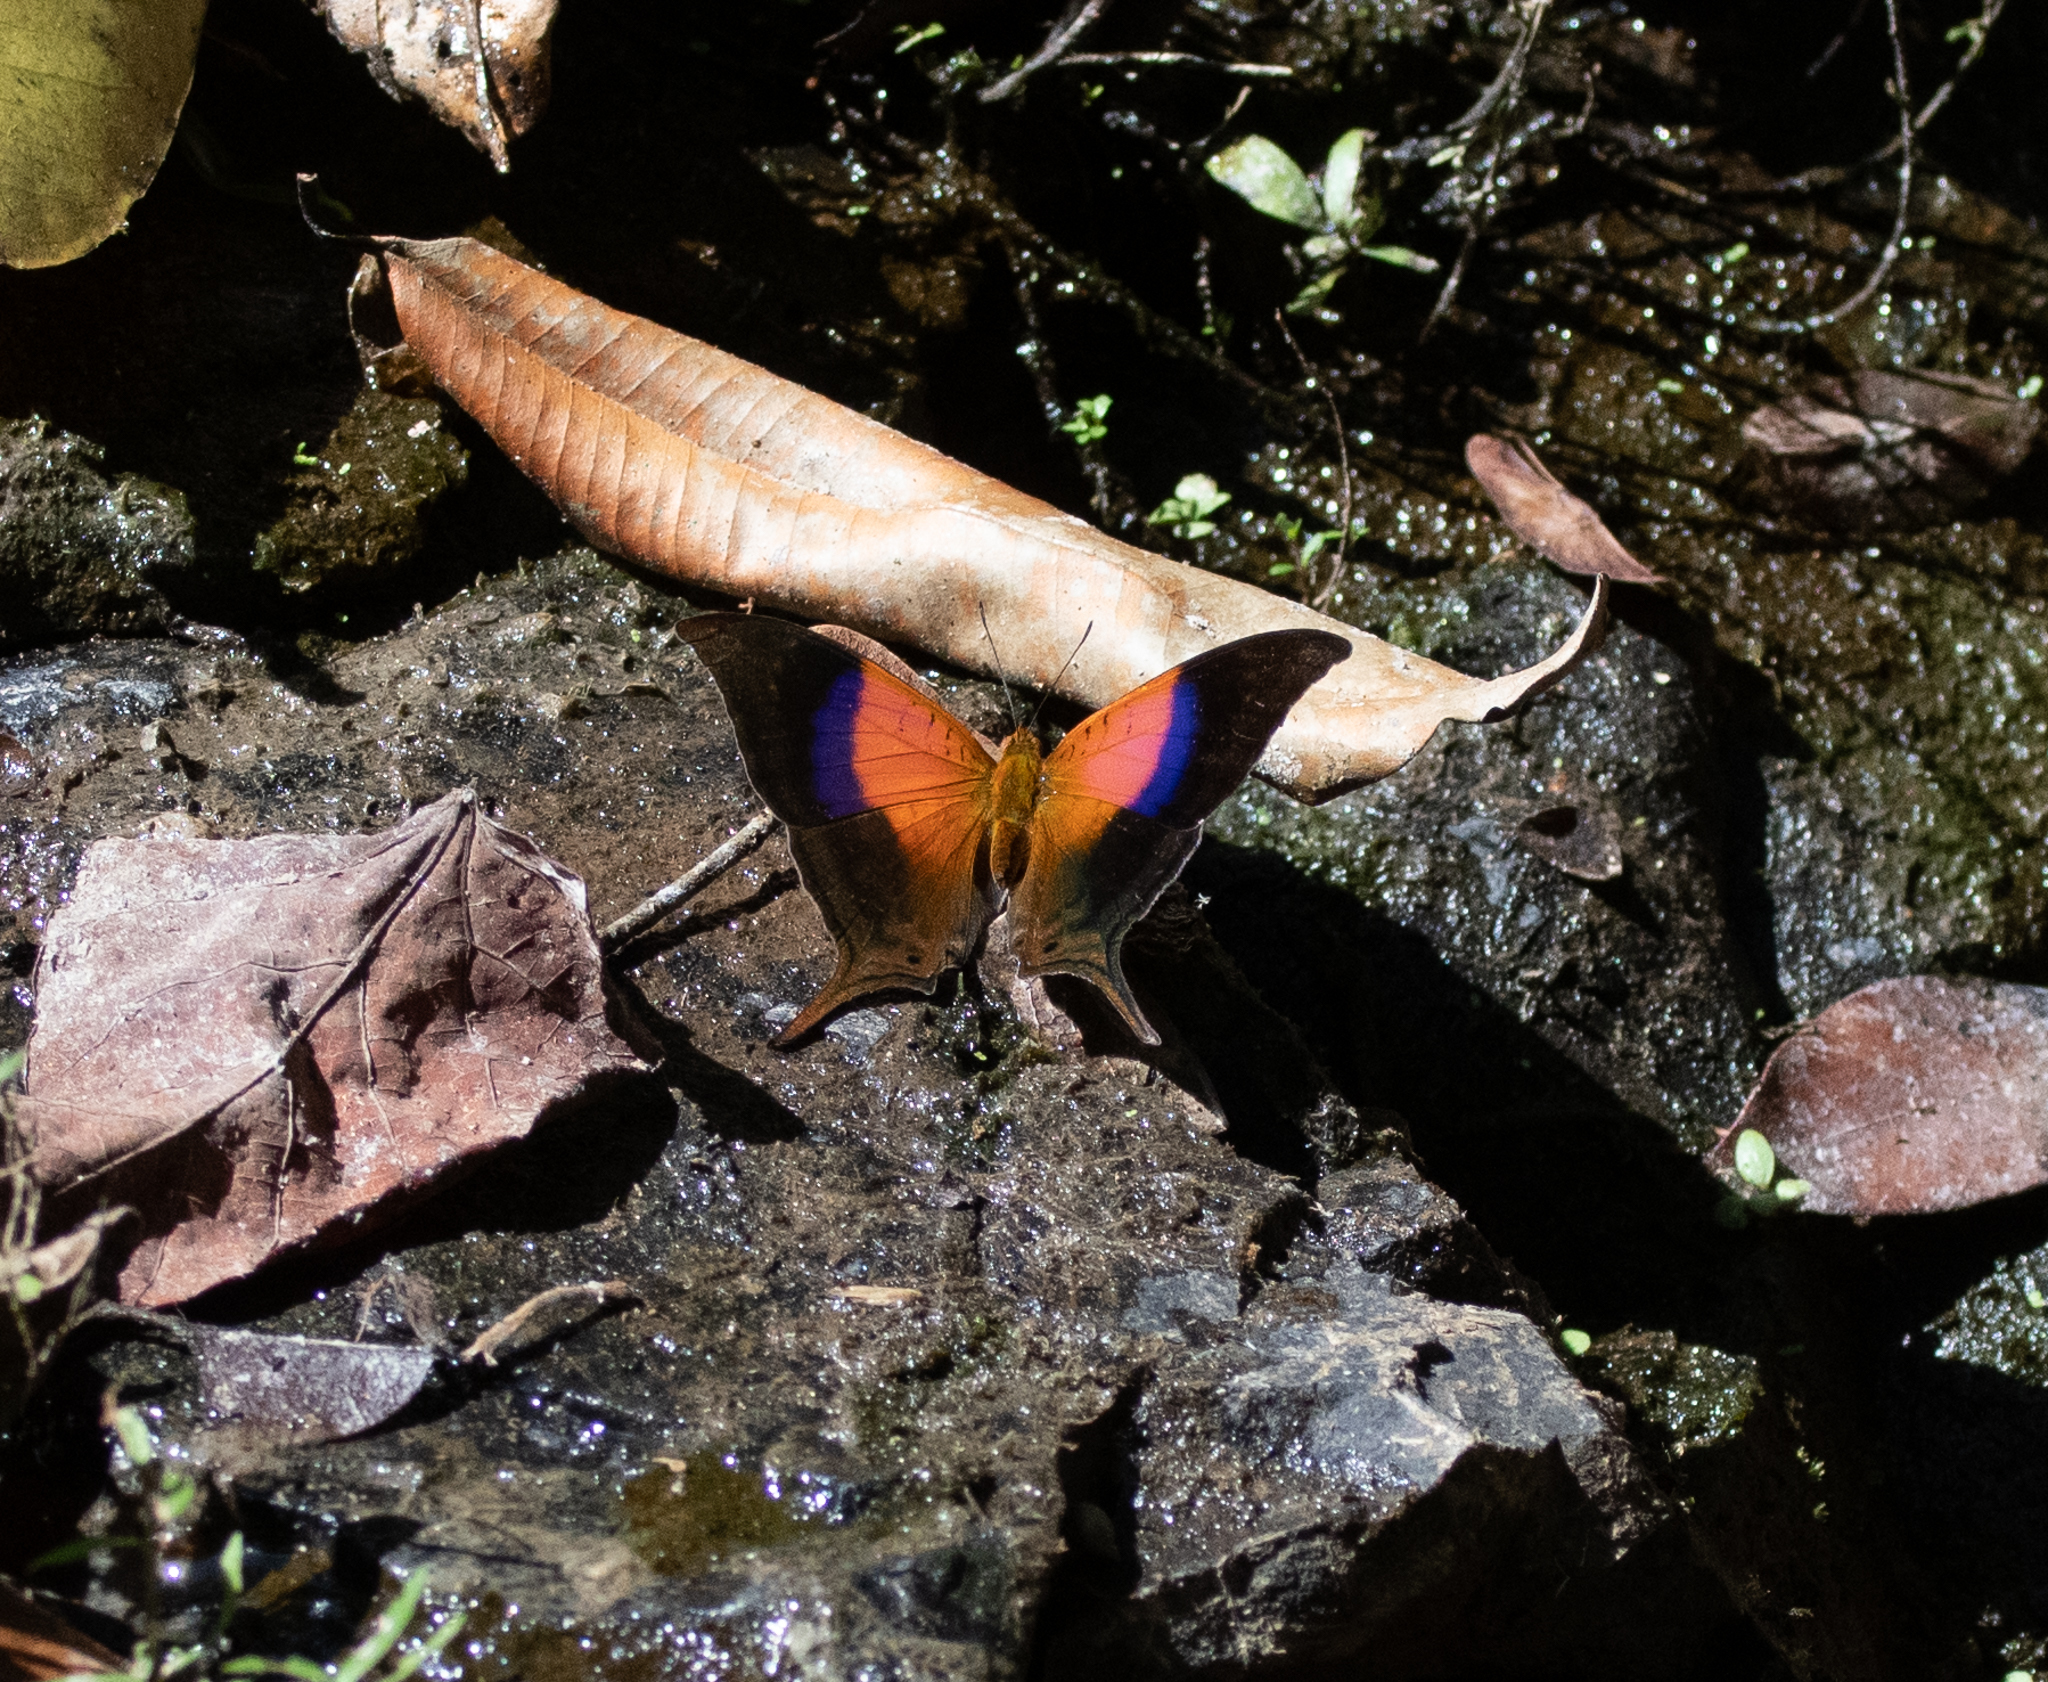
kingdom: Animalia
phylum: Arthropoda
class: Insecta
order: Lepidoptera
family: Nymphalidae
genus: Marpesia
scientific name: Marpesia furcula
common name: Sunset daggerwing
